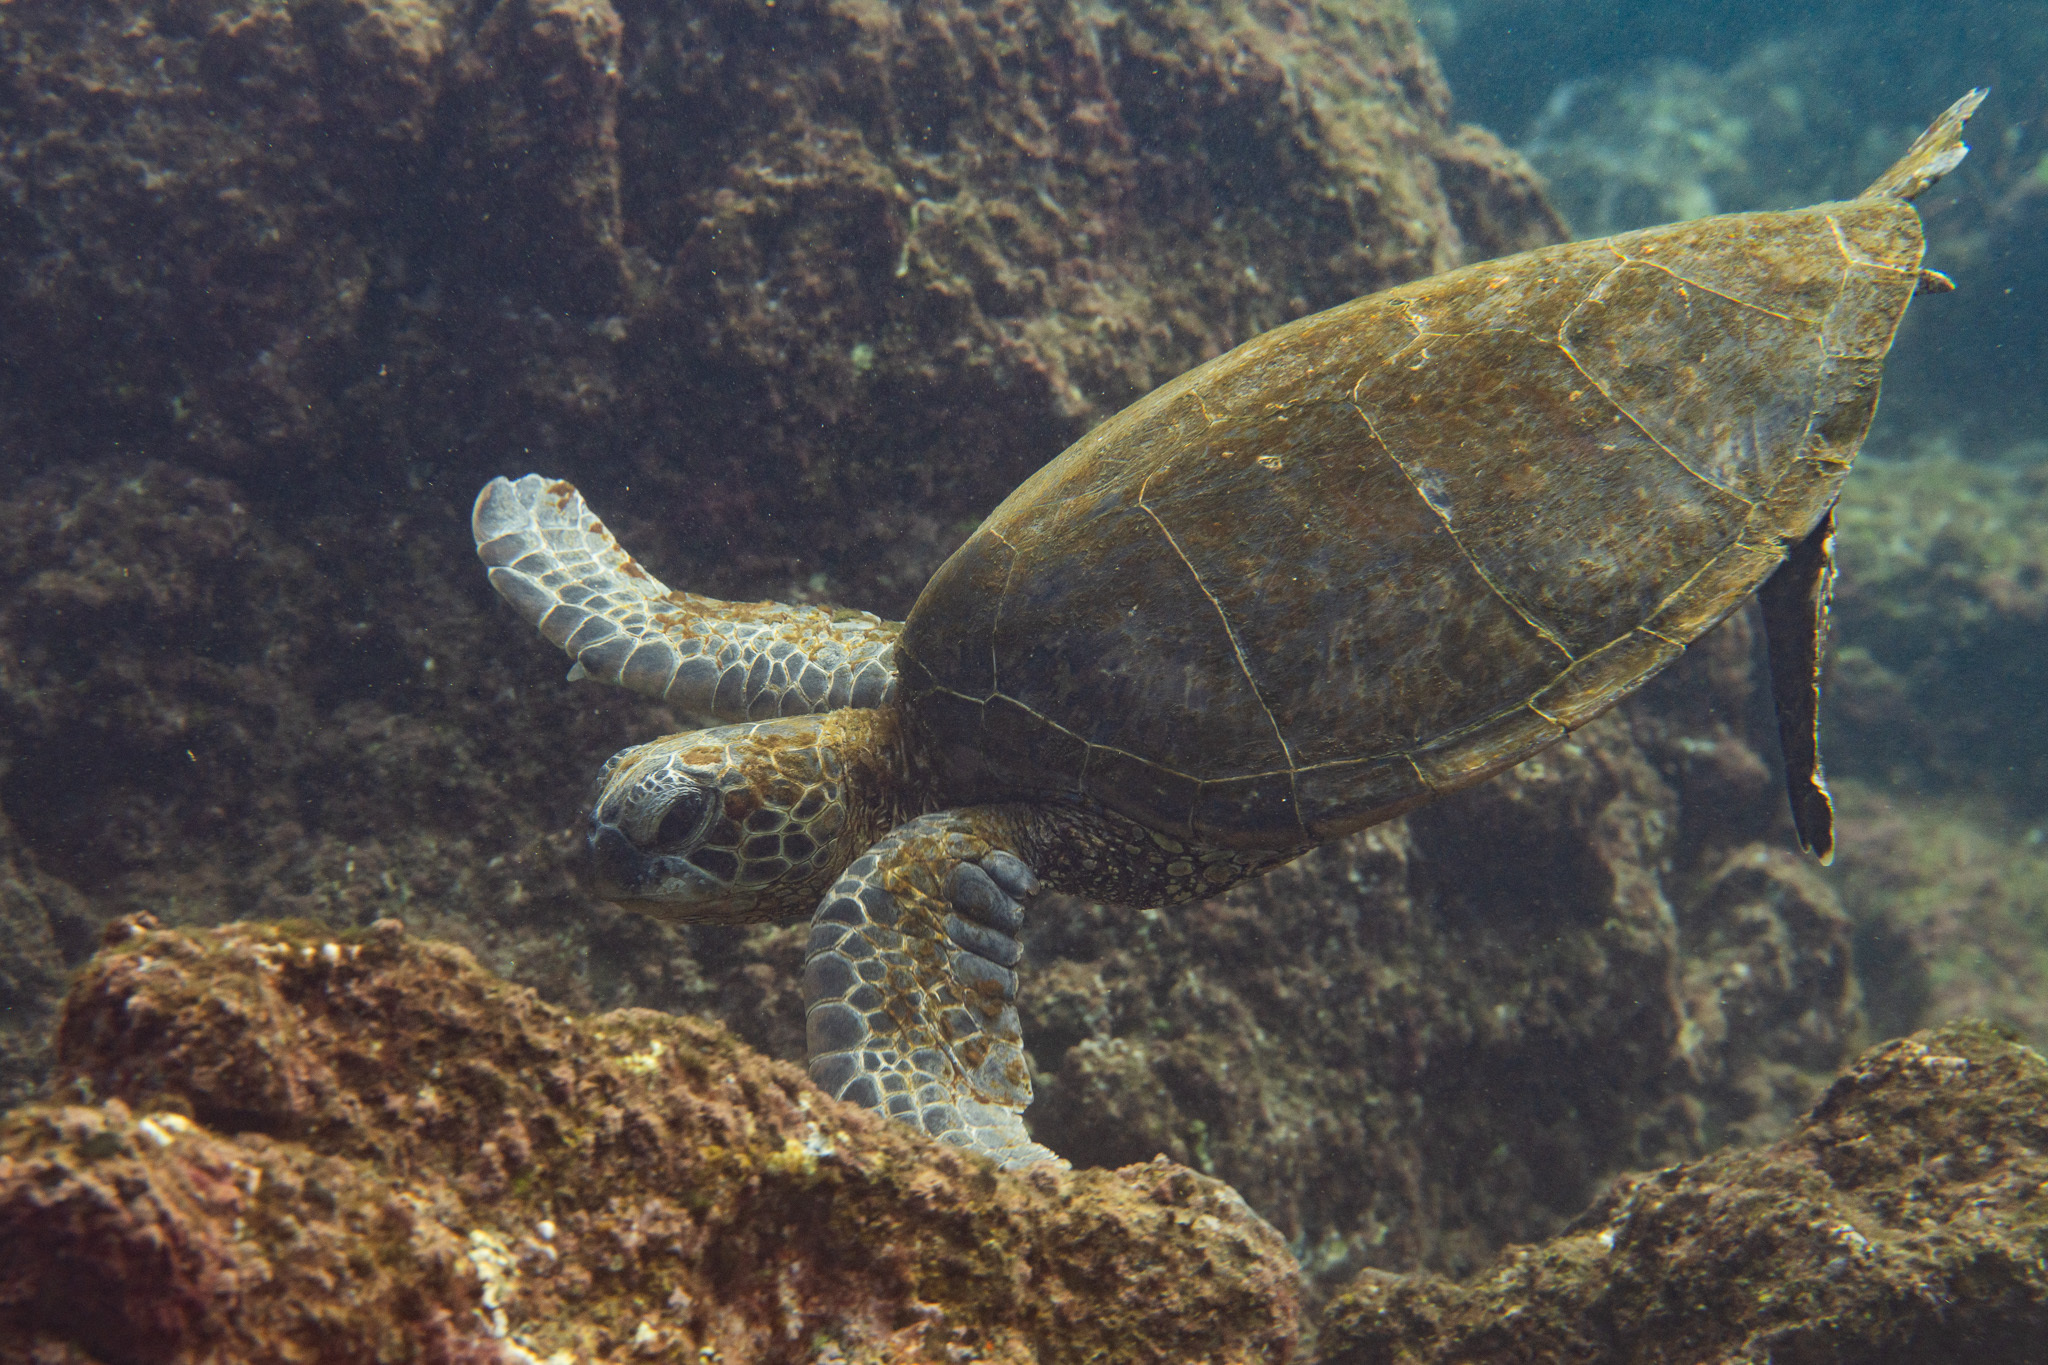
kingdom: Animalia
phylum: Chordata
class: Testudines
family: Cheloniidae
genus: Chelonia
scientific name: Chelonia mydas
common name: Green turtle
